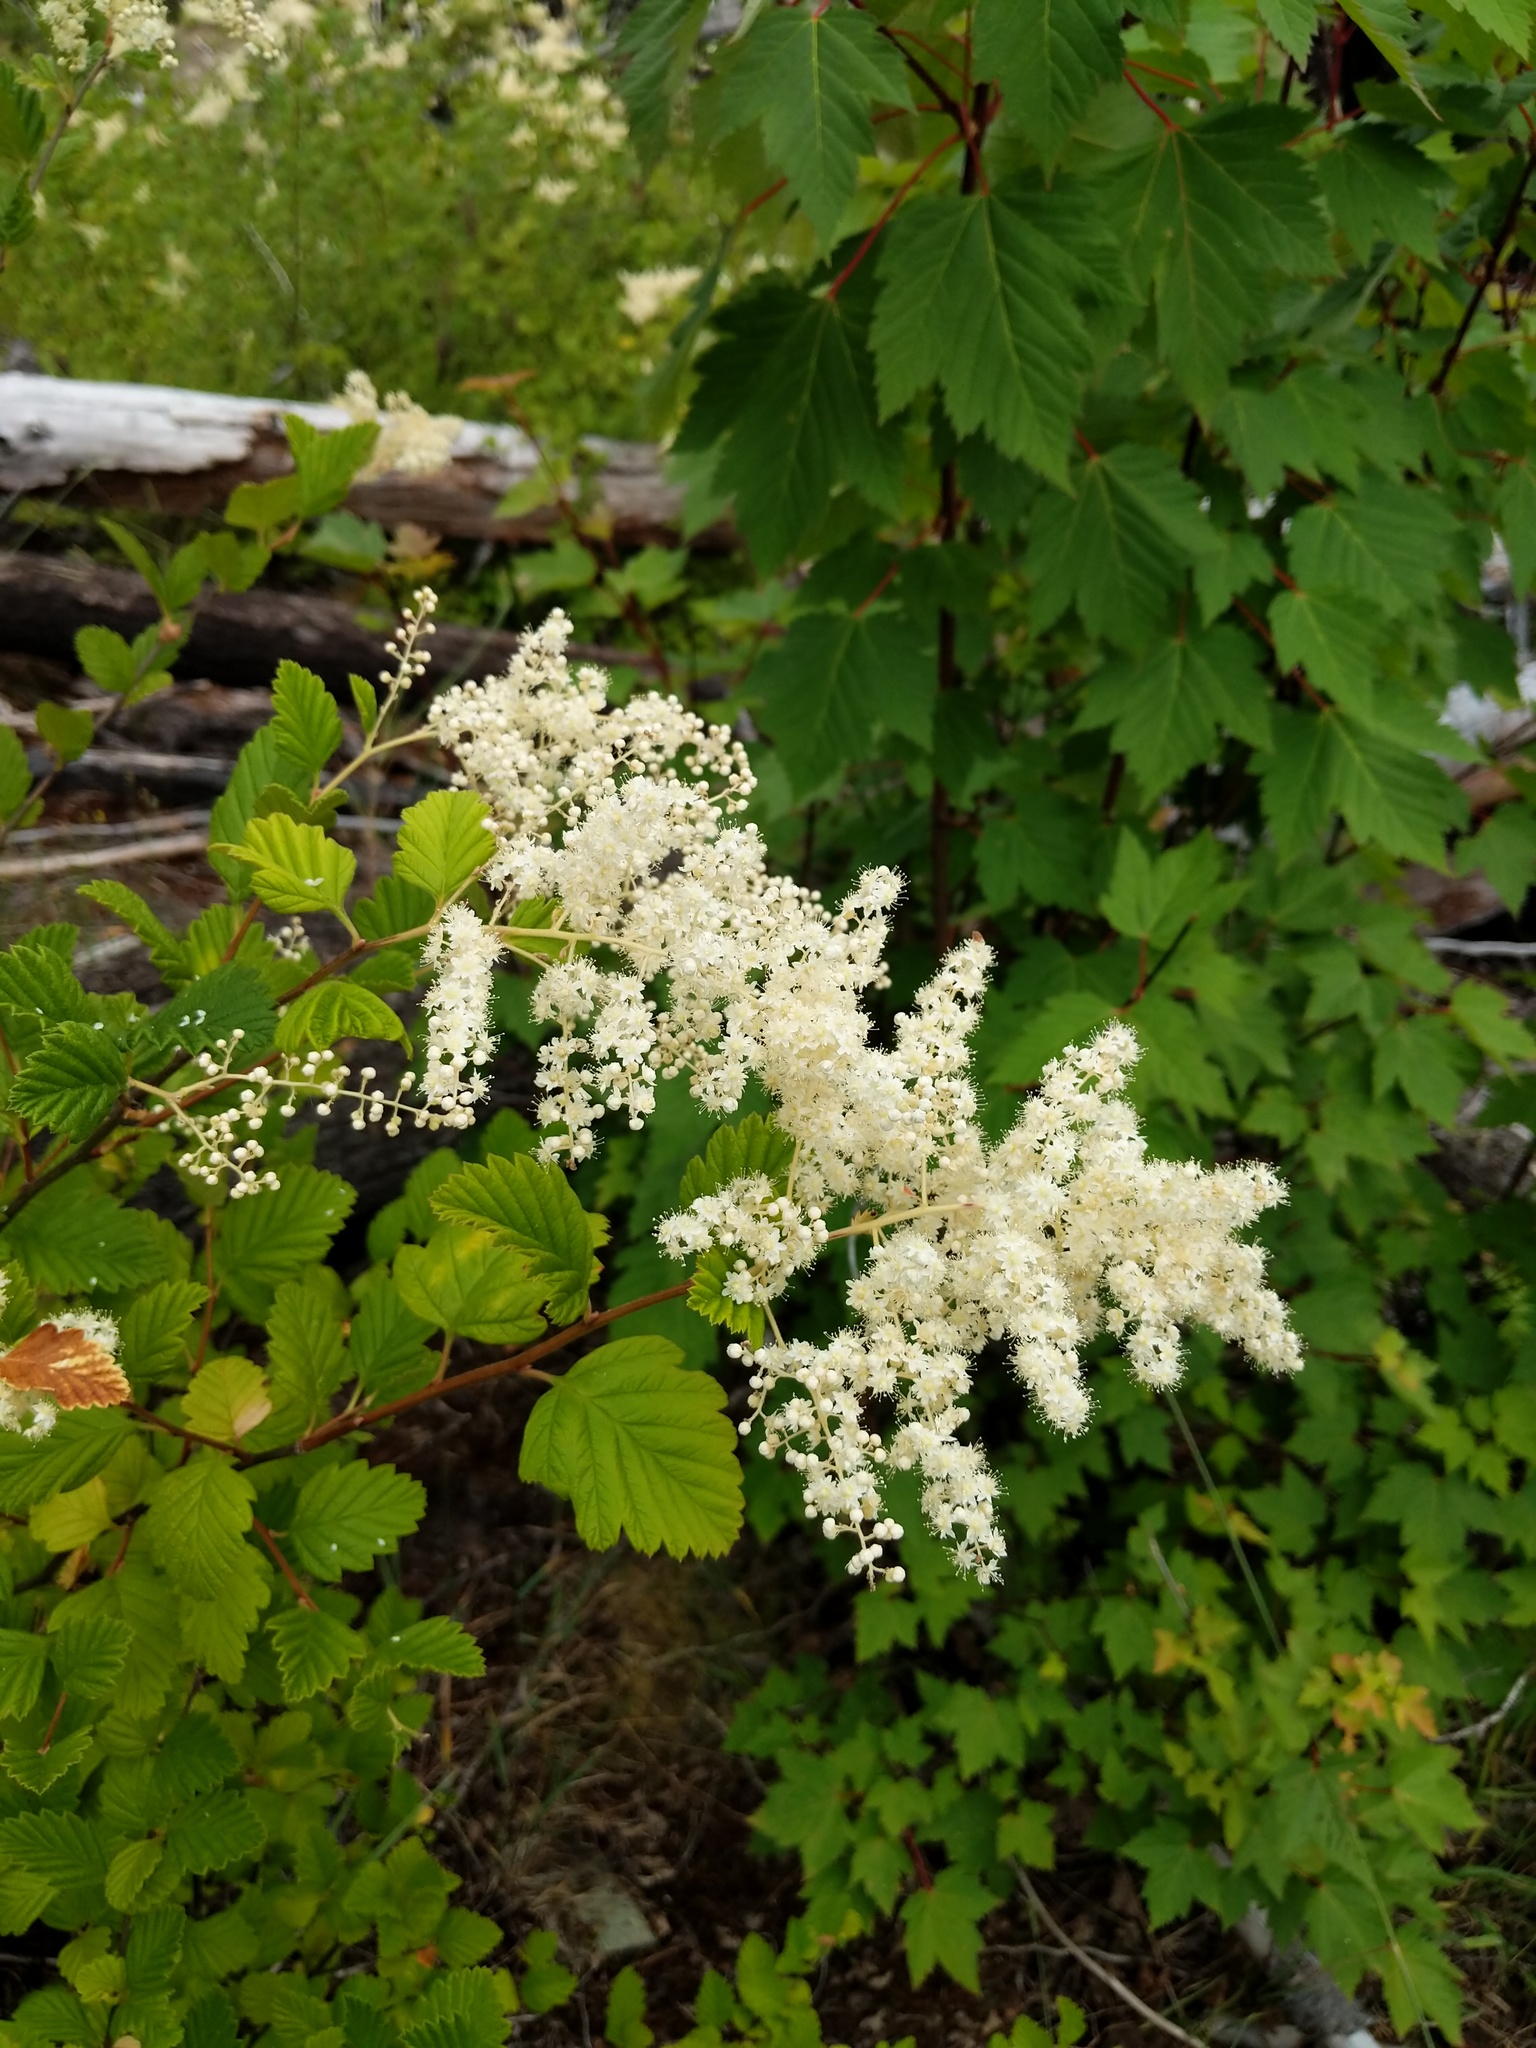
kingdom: Plantae
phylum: Tracheophyta
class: Magnoliopsida
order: Rosales
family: Rosaceae
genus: Holodiscus
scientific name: Holodiscus discolor
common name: Oceanspray
